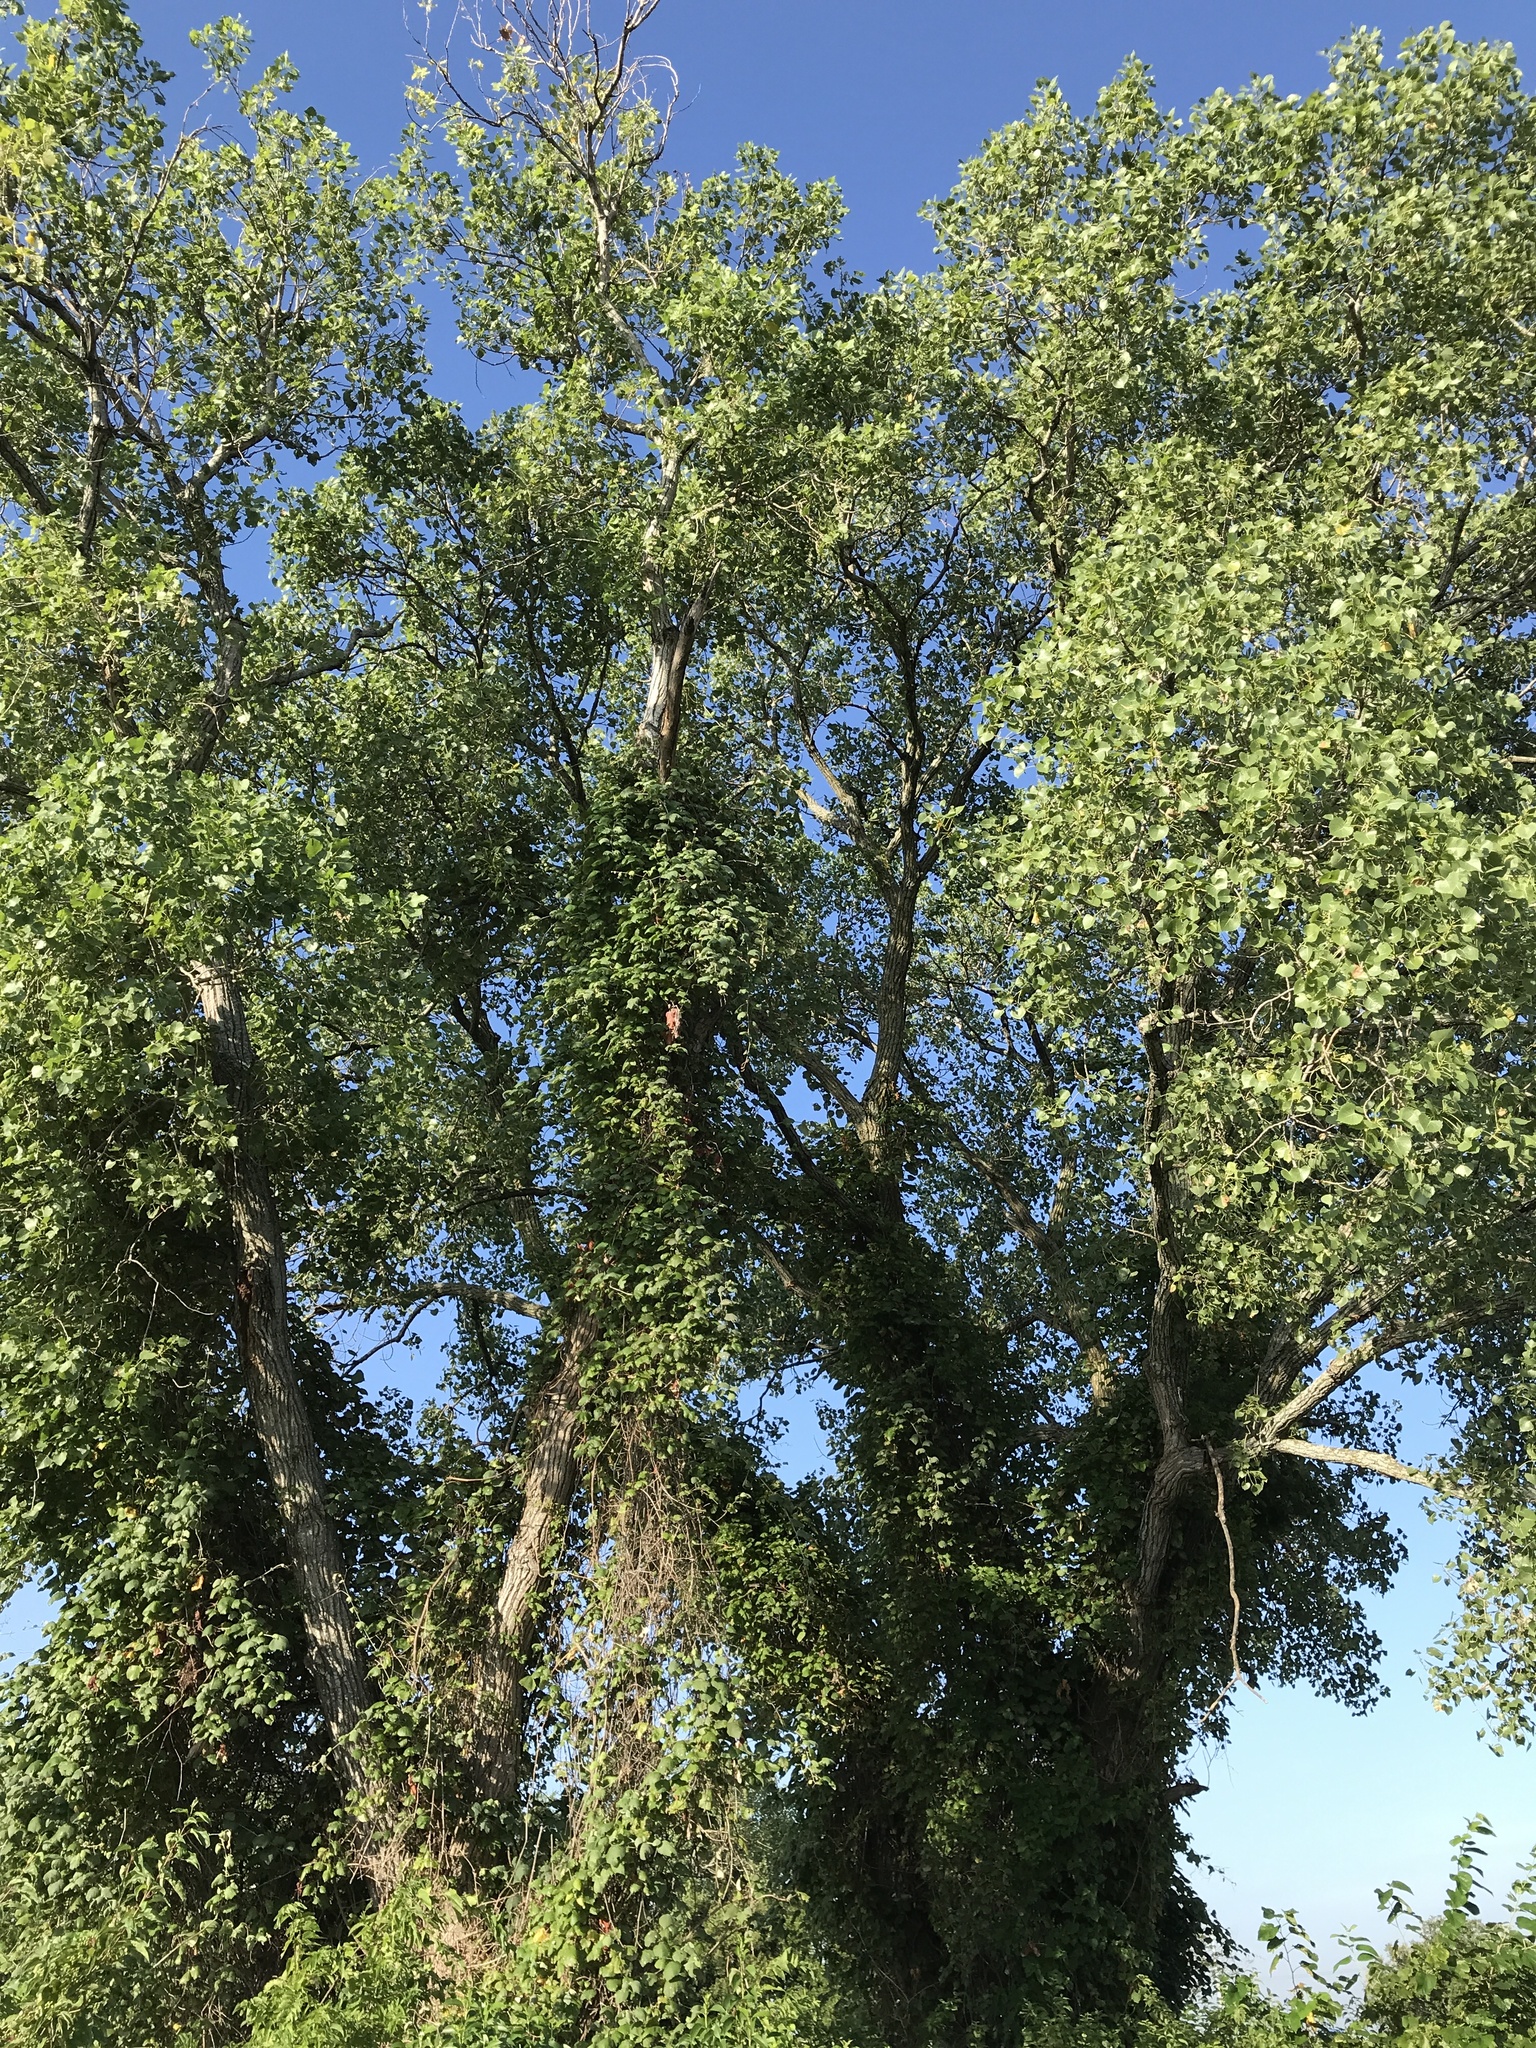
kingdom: Plantae
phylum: Tracheophyta
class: Magnoliopsida
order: Malpighiales
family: Salicaceae
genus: Populus
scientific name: Populus deltoides
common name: Eastern cottonwood
